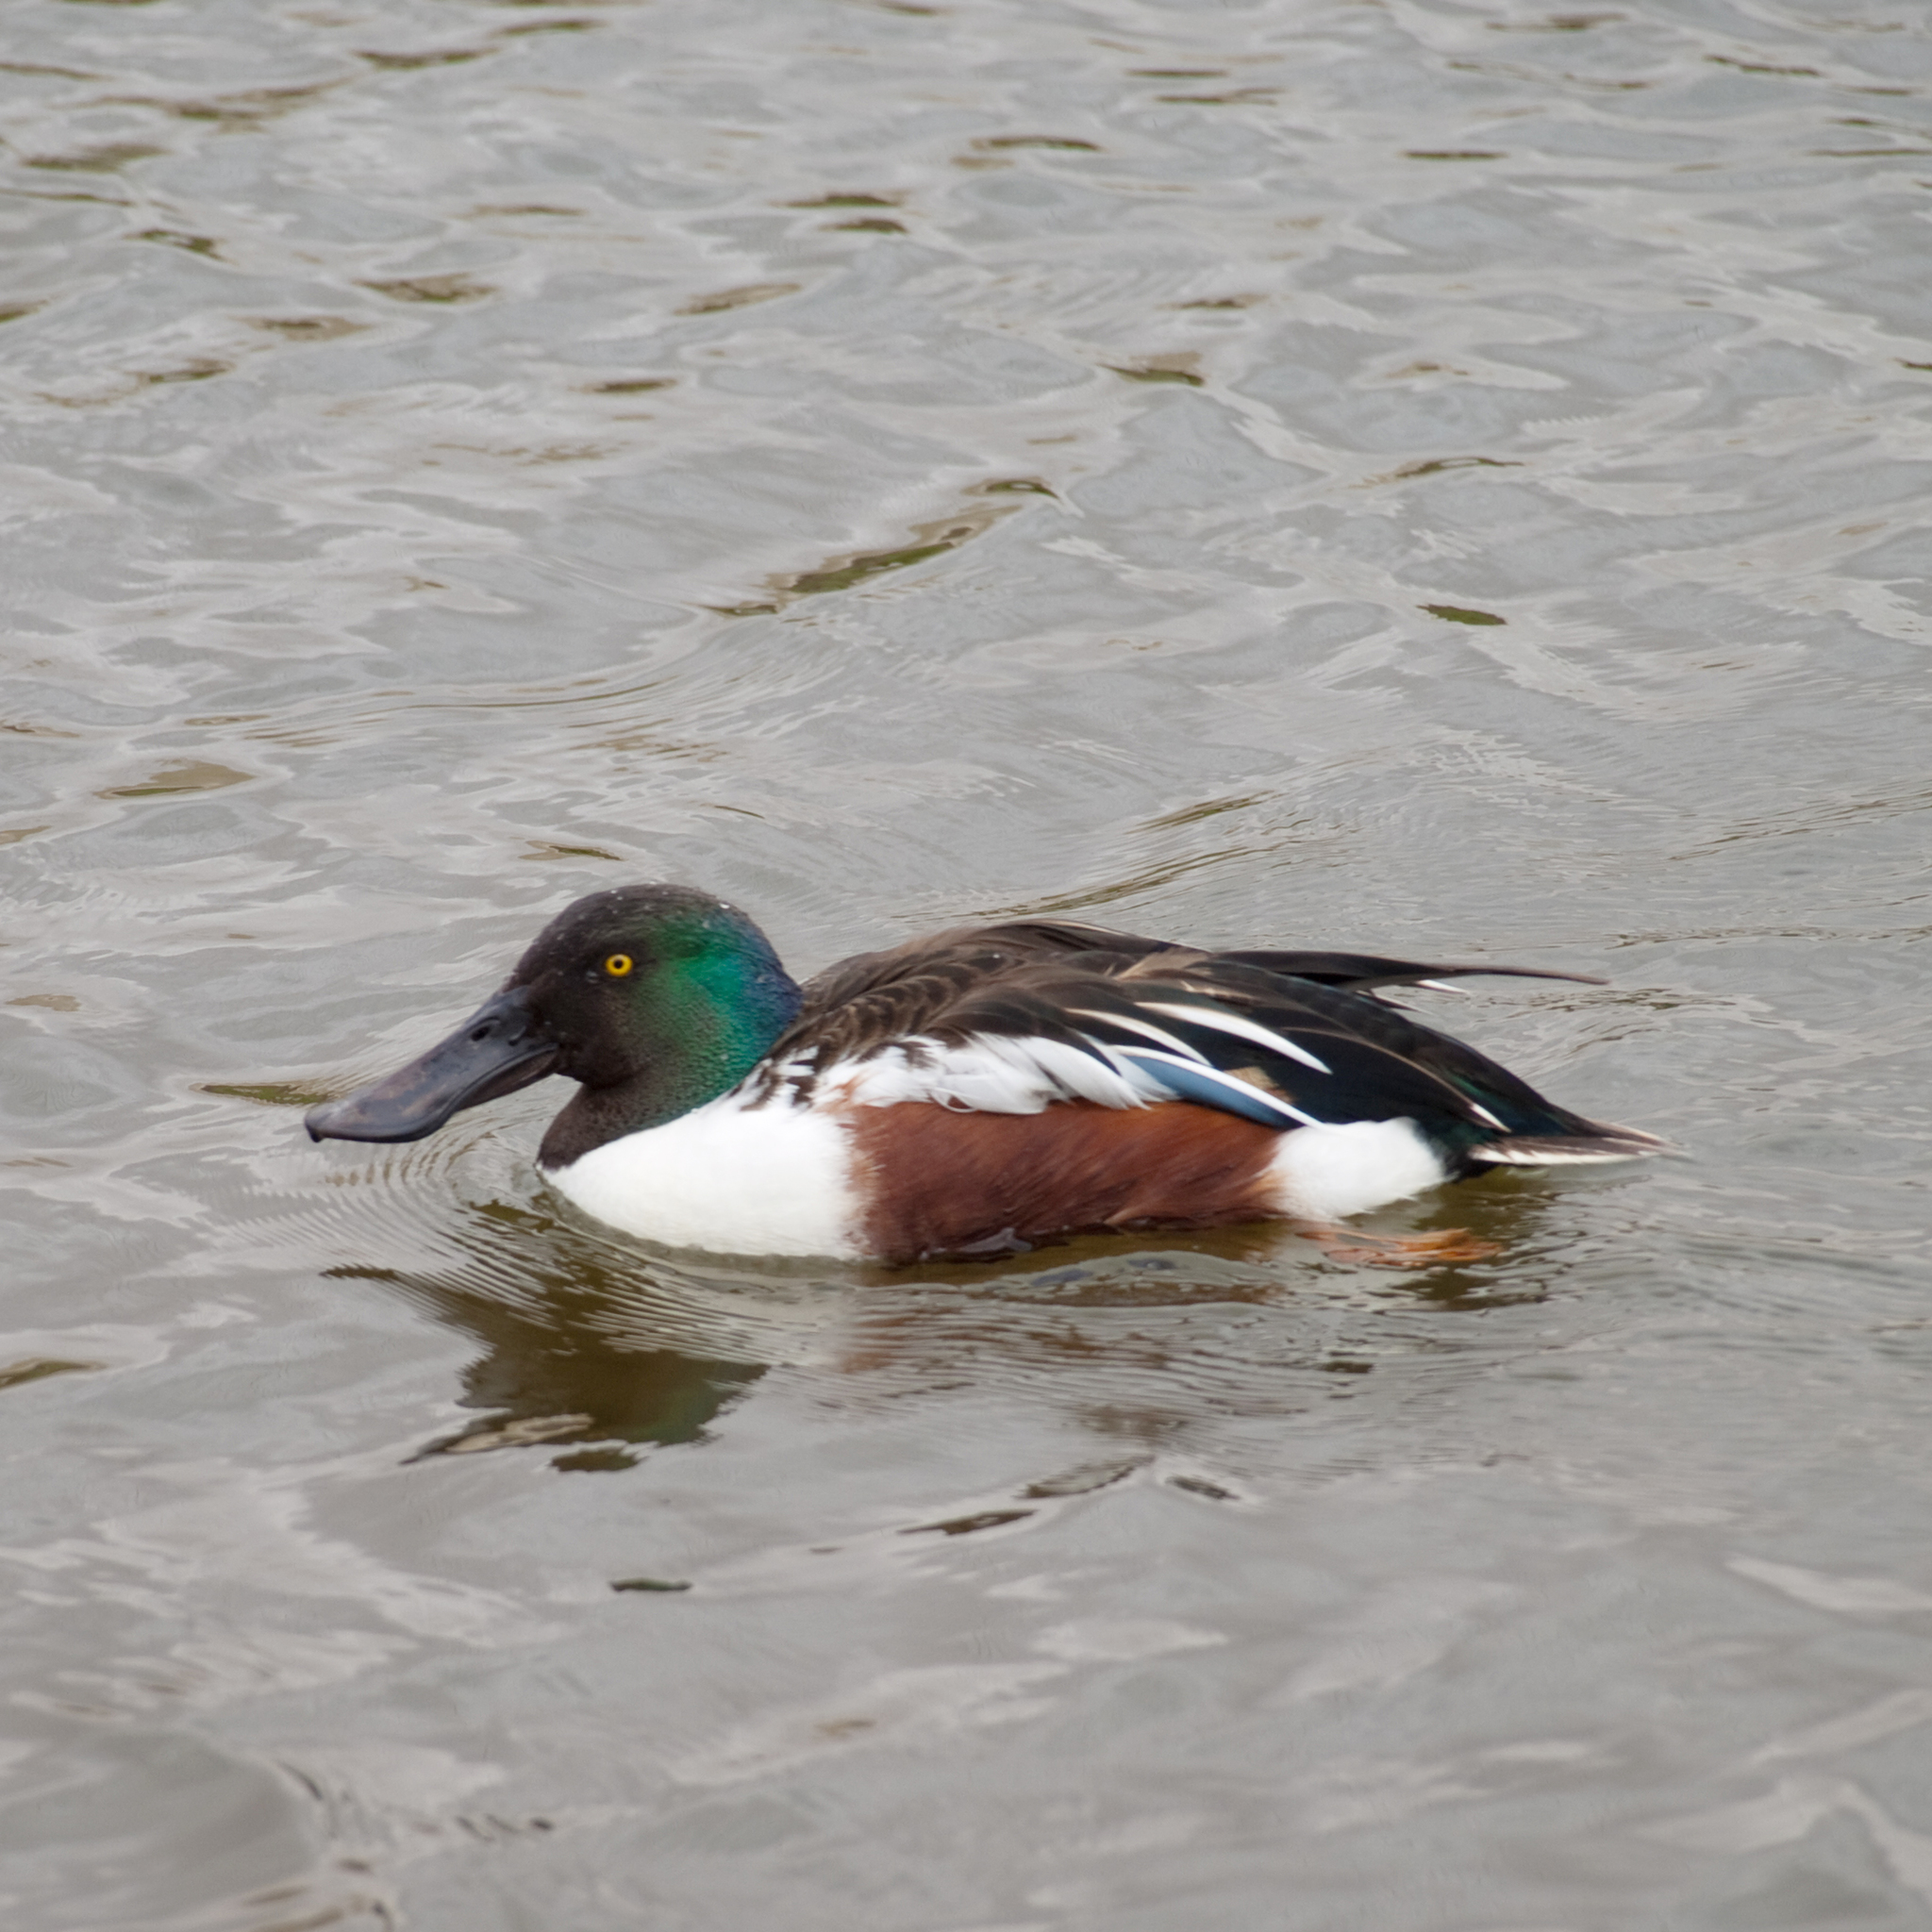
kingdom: Animalia
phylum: Chordata
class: Aves
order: Anseriformes
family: Anatidae
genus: Spatula
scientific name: Spatula clypeata
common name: Northern shoveler
